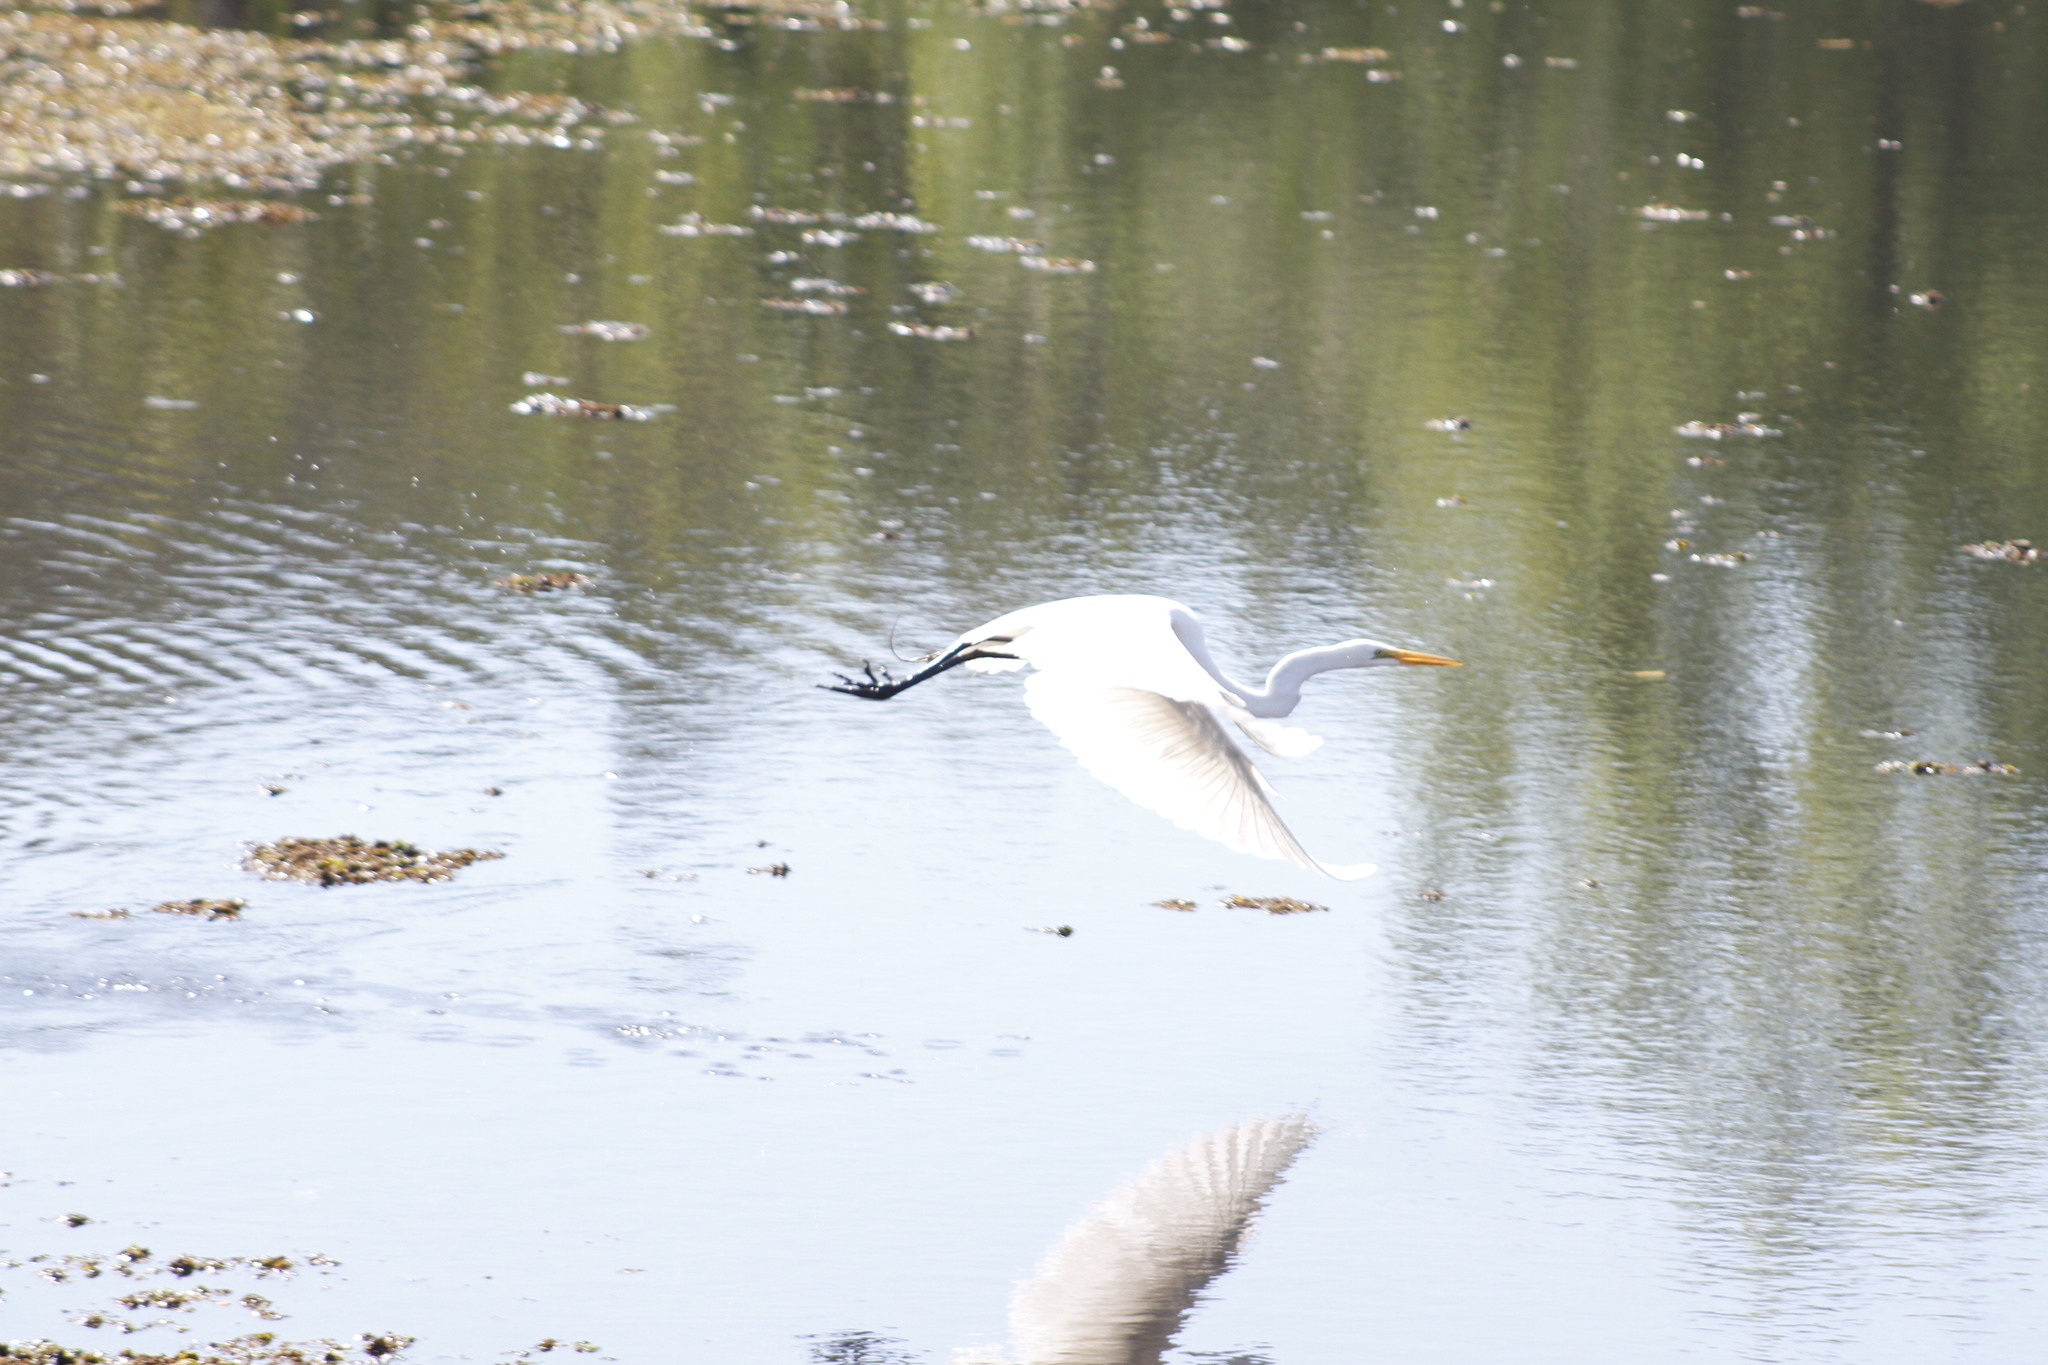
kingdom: Animalia
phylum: Chordata
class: Aves
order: Pelecaniformes
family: Ardeidae
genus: Ardea
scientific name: Ardea alba
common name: Great egret
